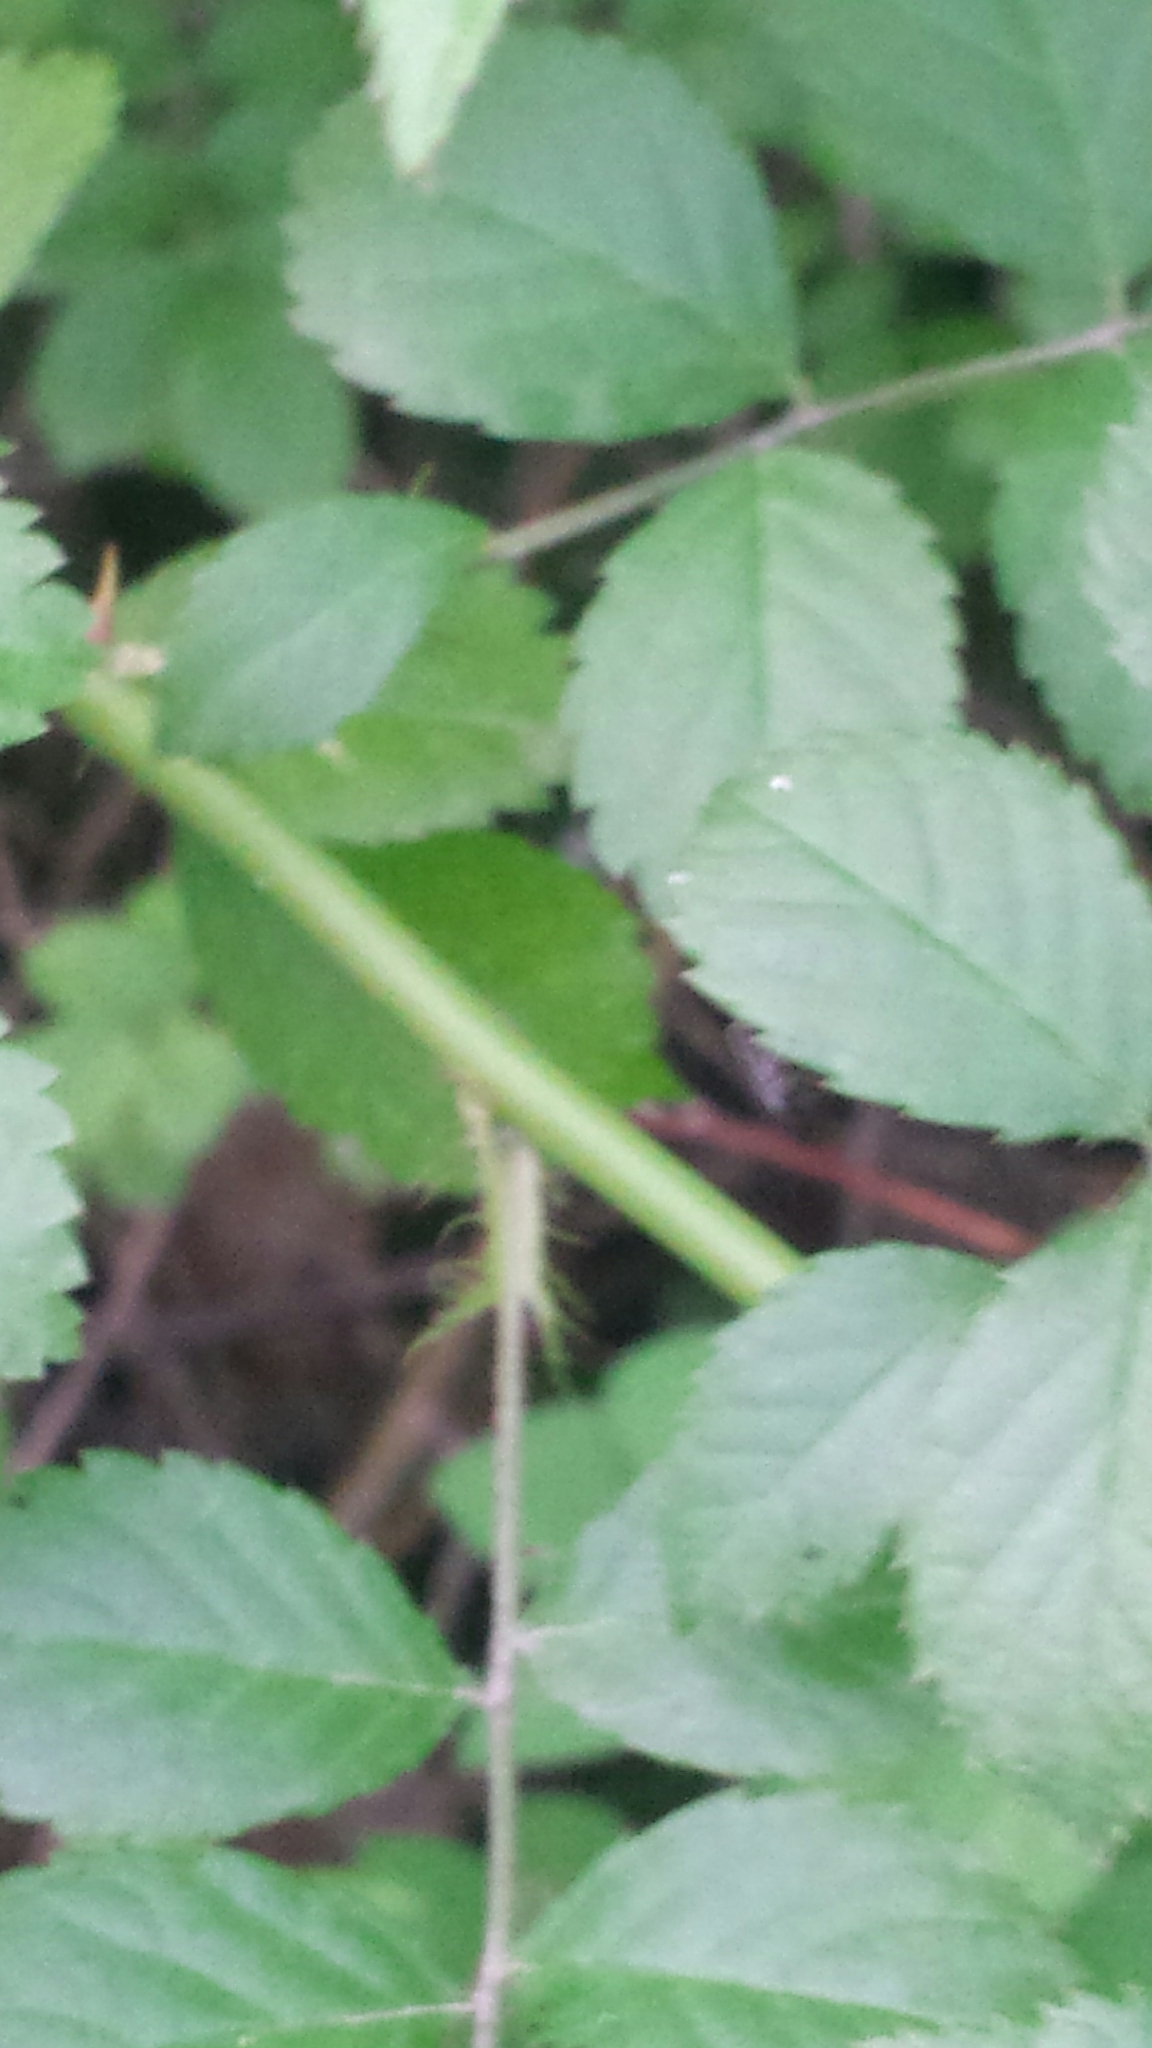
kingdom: Plantae
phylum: Tracheophyta
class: Magnoliopsida
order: Rosales
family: Rosaceae
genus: Rosa
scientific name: Rosa multiflora
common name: Multiflora rose
